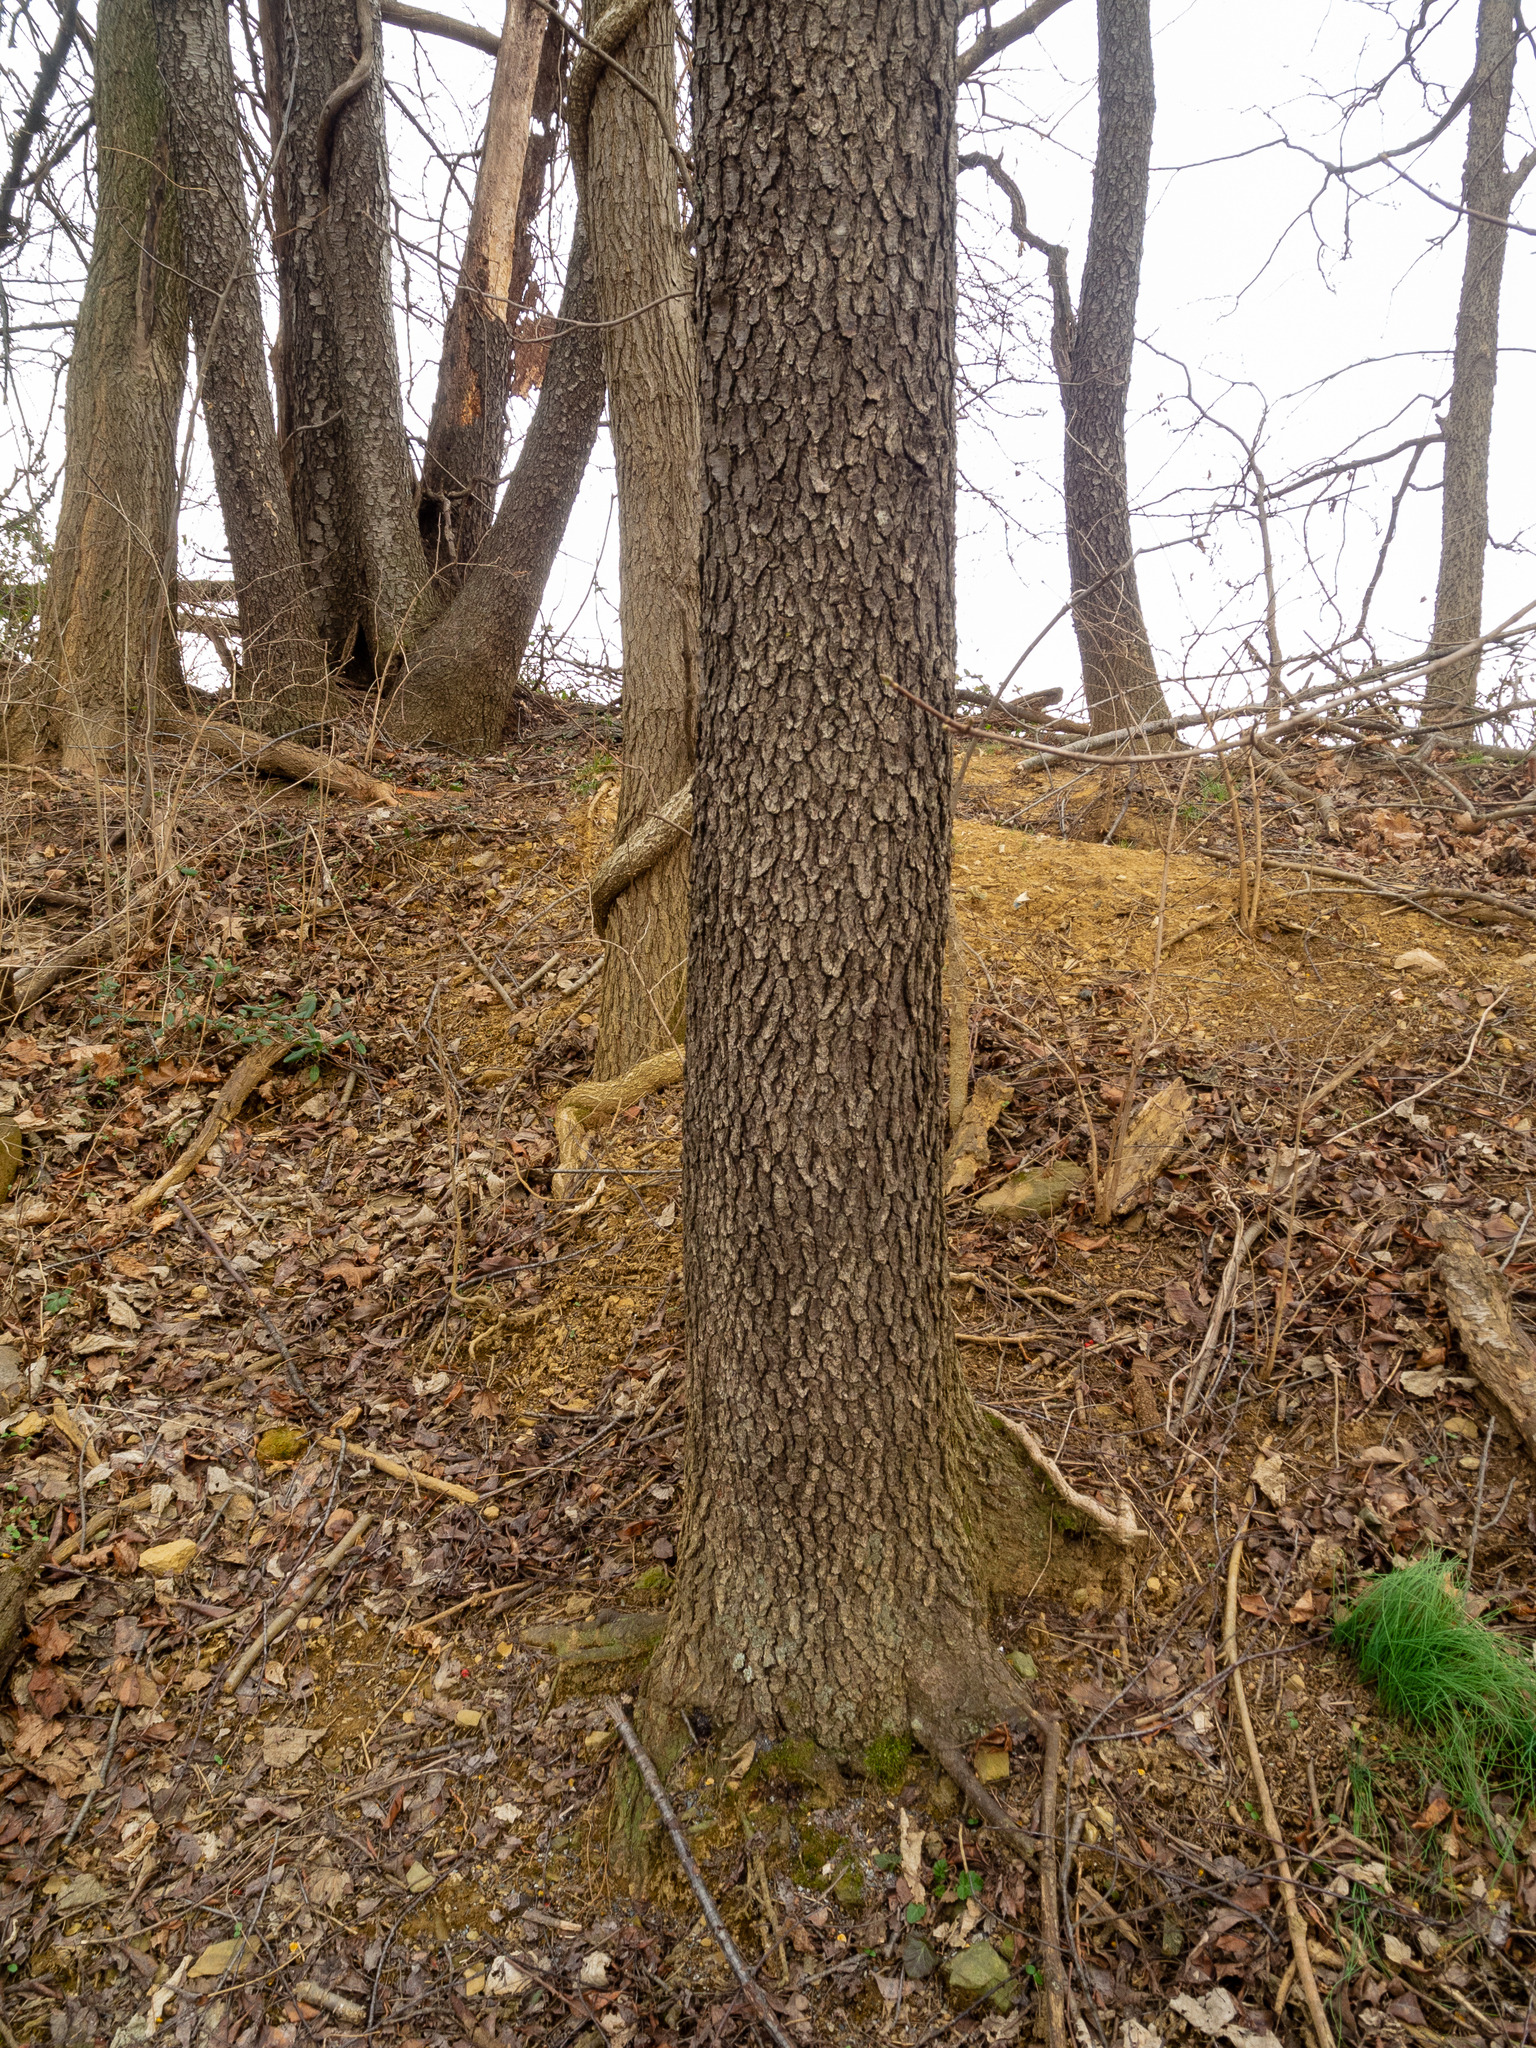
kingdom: Plantae
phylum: Tracheophyta
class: Magnoliopsida
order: Rosales
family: Rosaceae
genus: Prunus
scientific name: Prunus serotina
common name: Black cherry
